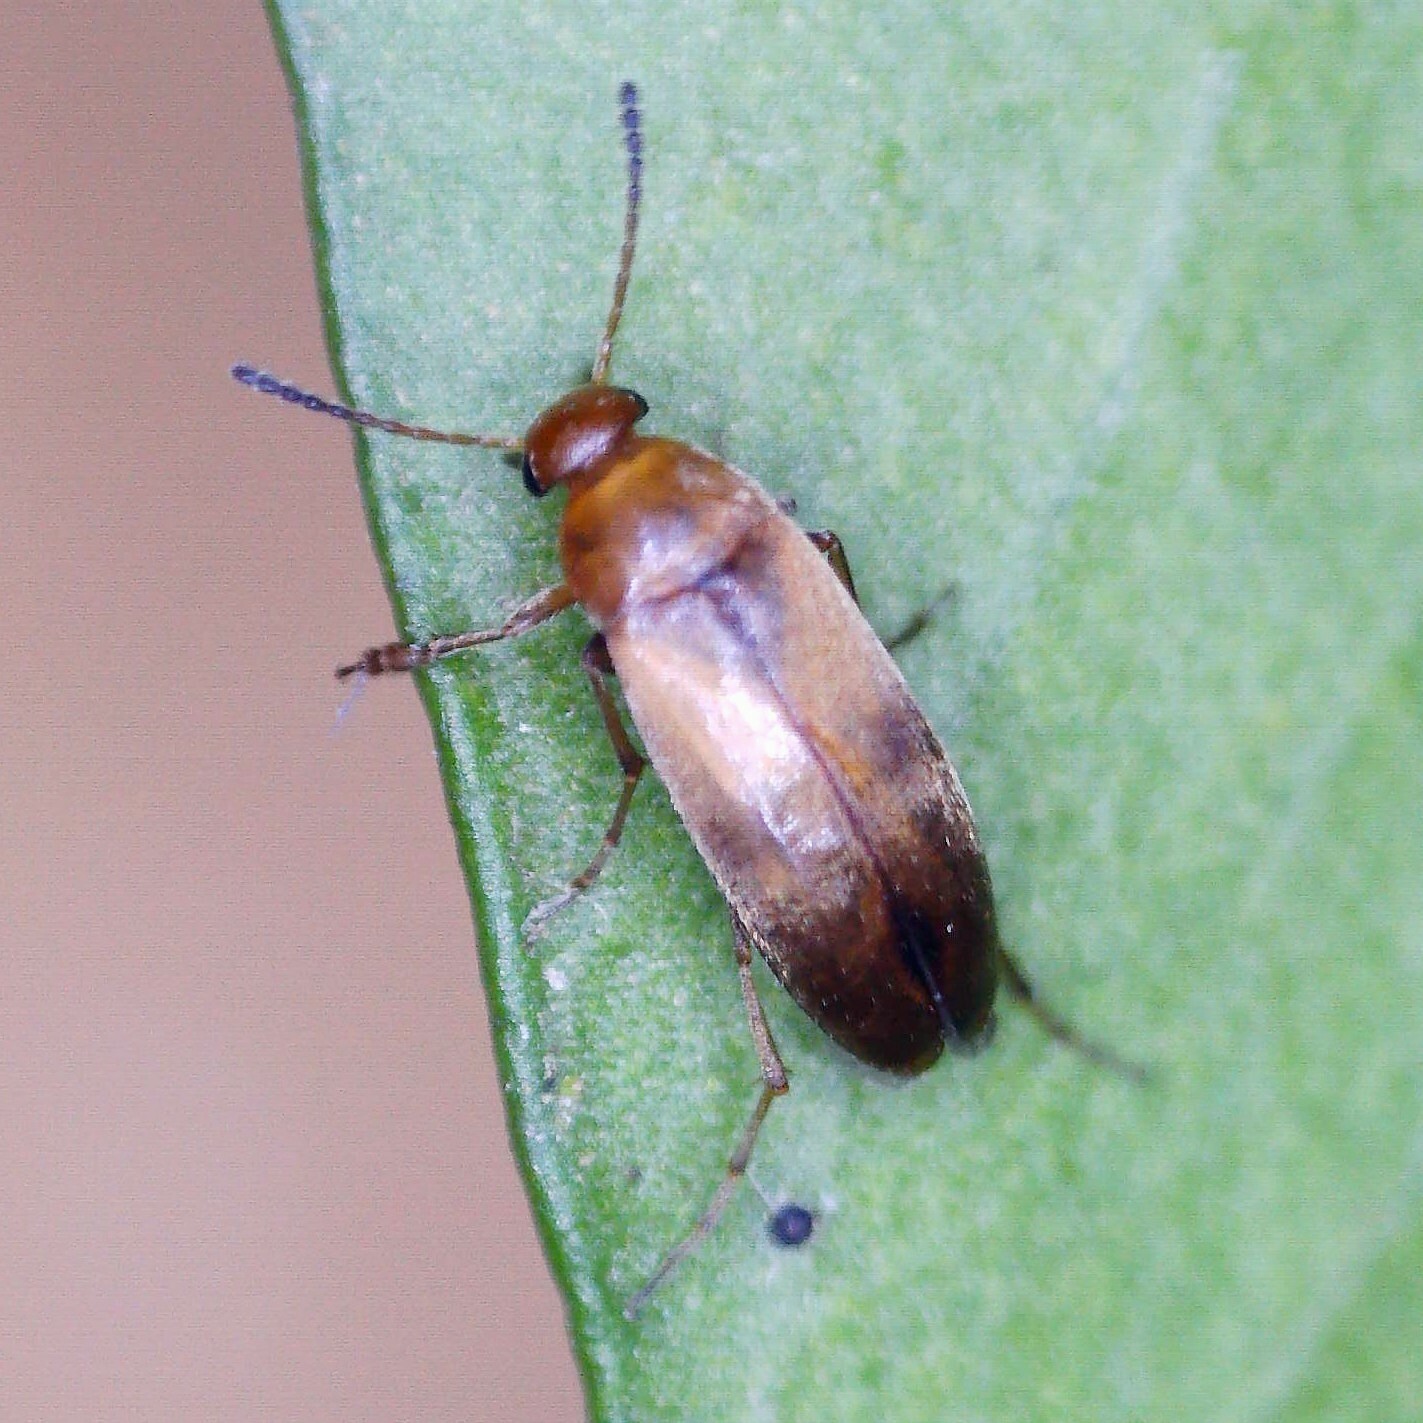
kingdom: Animalia
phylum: Arthropoda
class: Insecta
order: Coleoptera
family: Scraptiidae
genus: Anaspis
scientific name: Anaspis maculata
